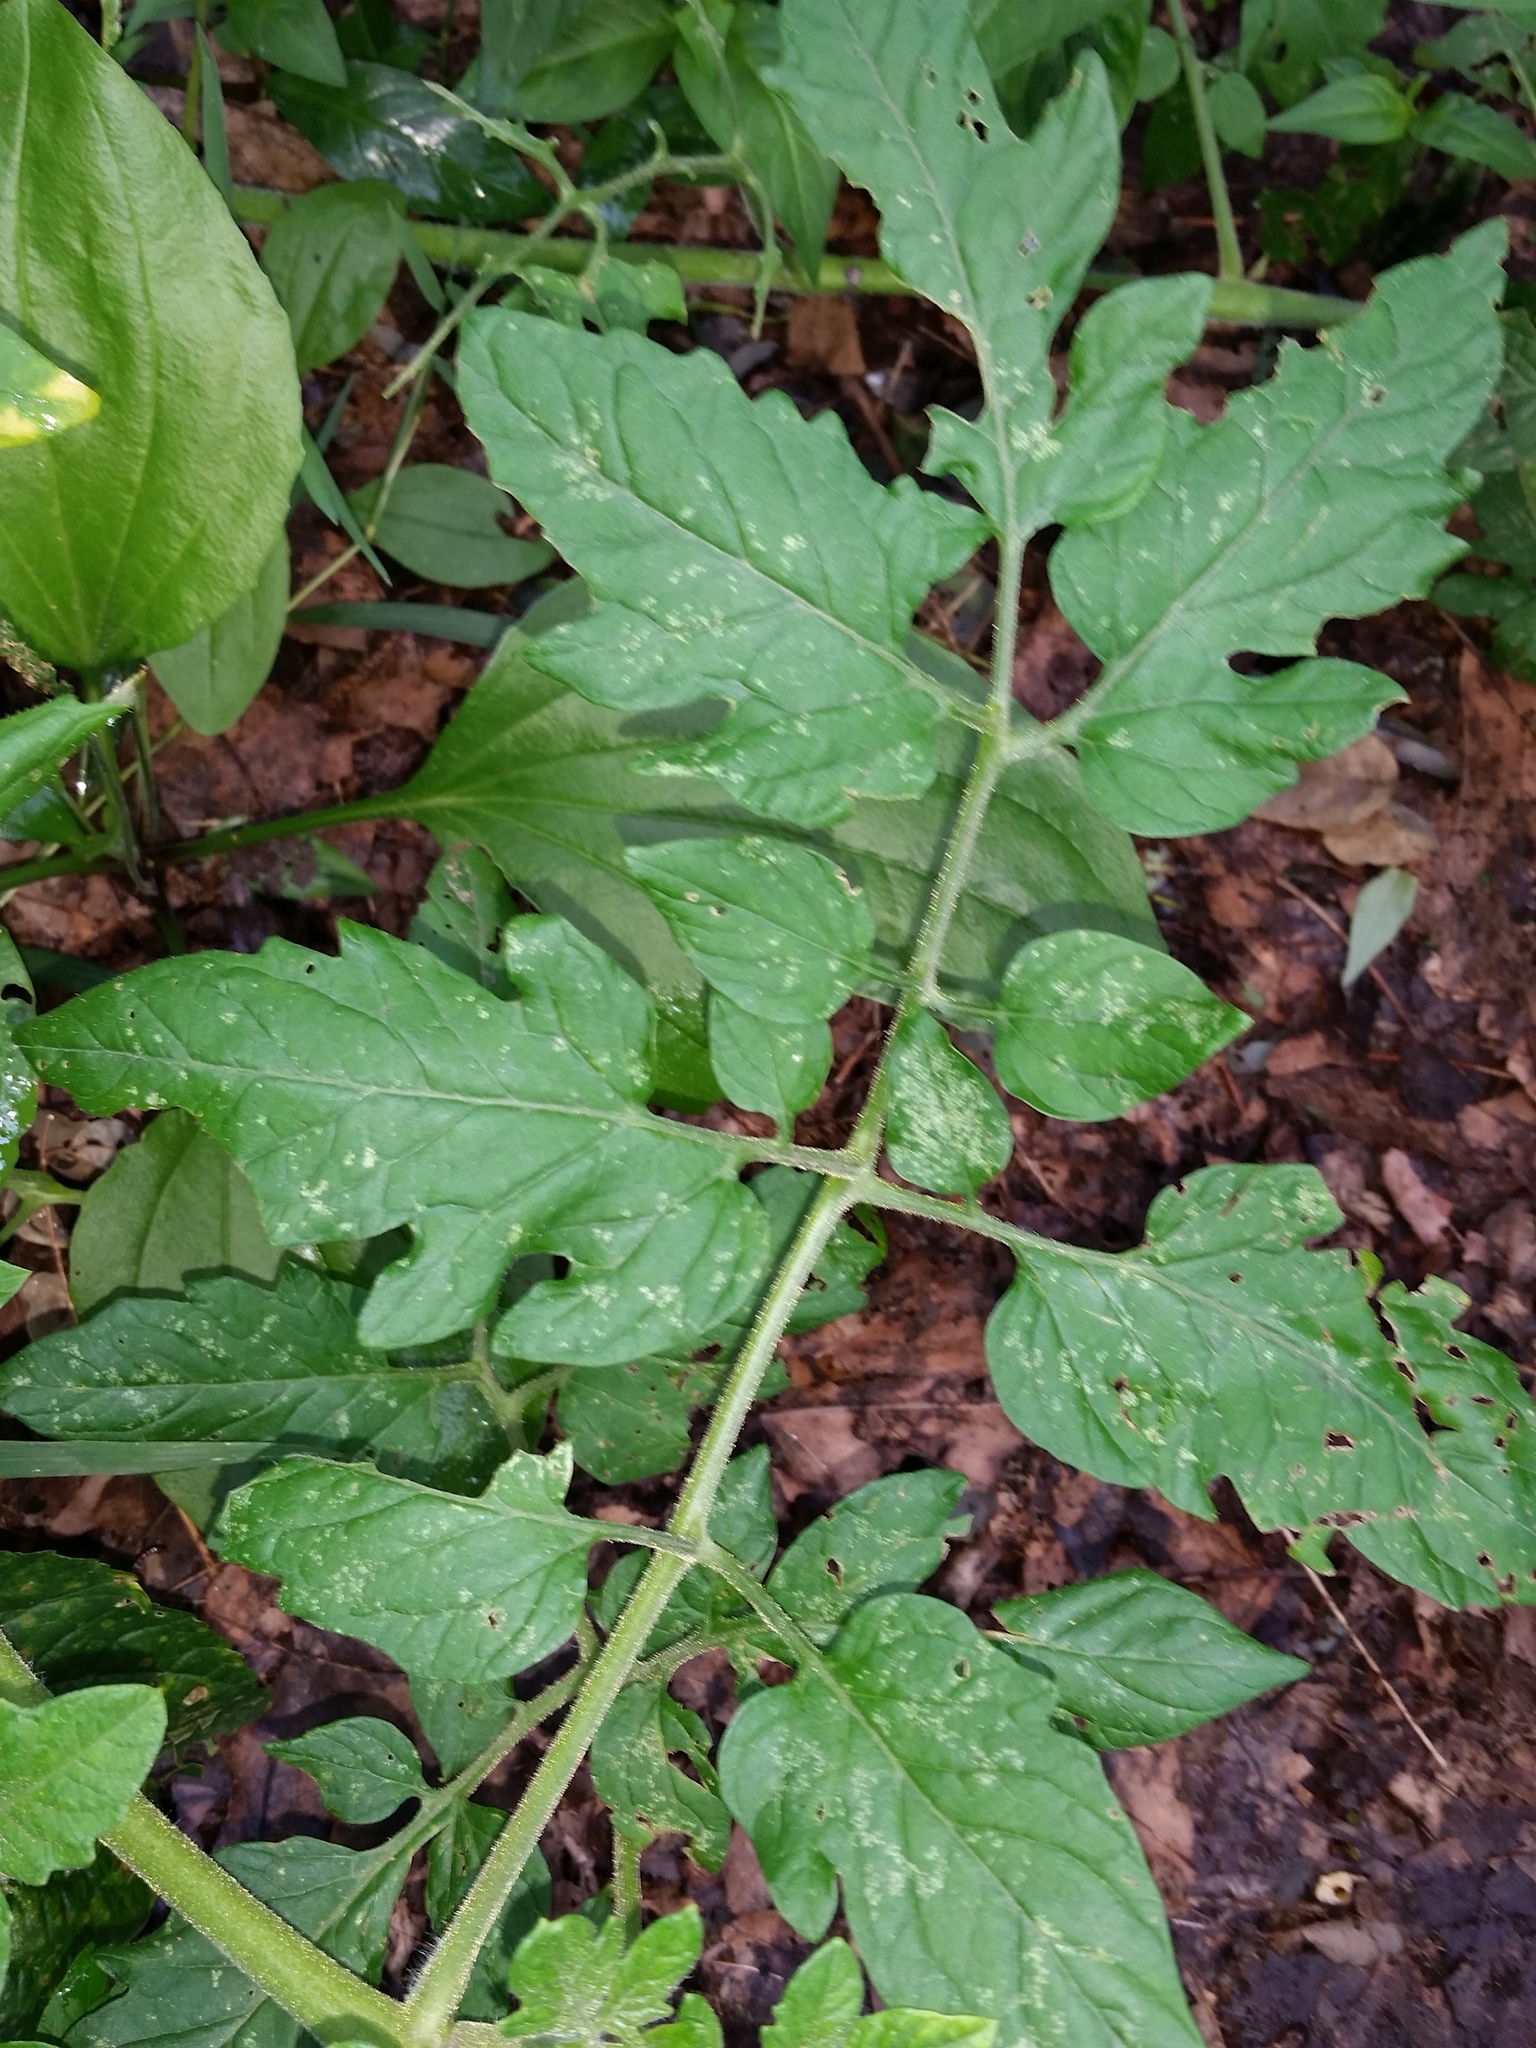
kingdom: Plantae
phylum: Tracheophyta
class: Magnoliopsida
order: Solanales
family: Solanaceae
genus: Solanum
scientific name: Solanum lycopersicum
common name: Garden tomato
